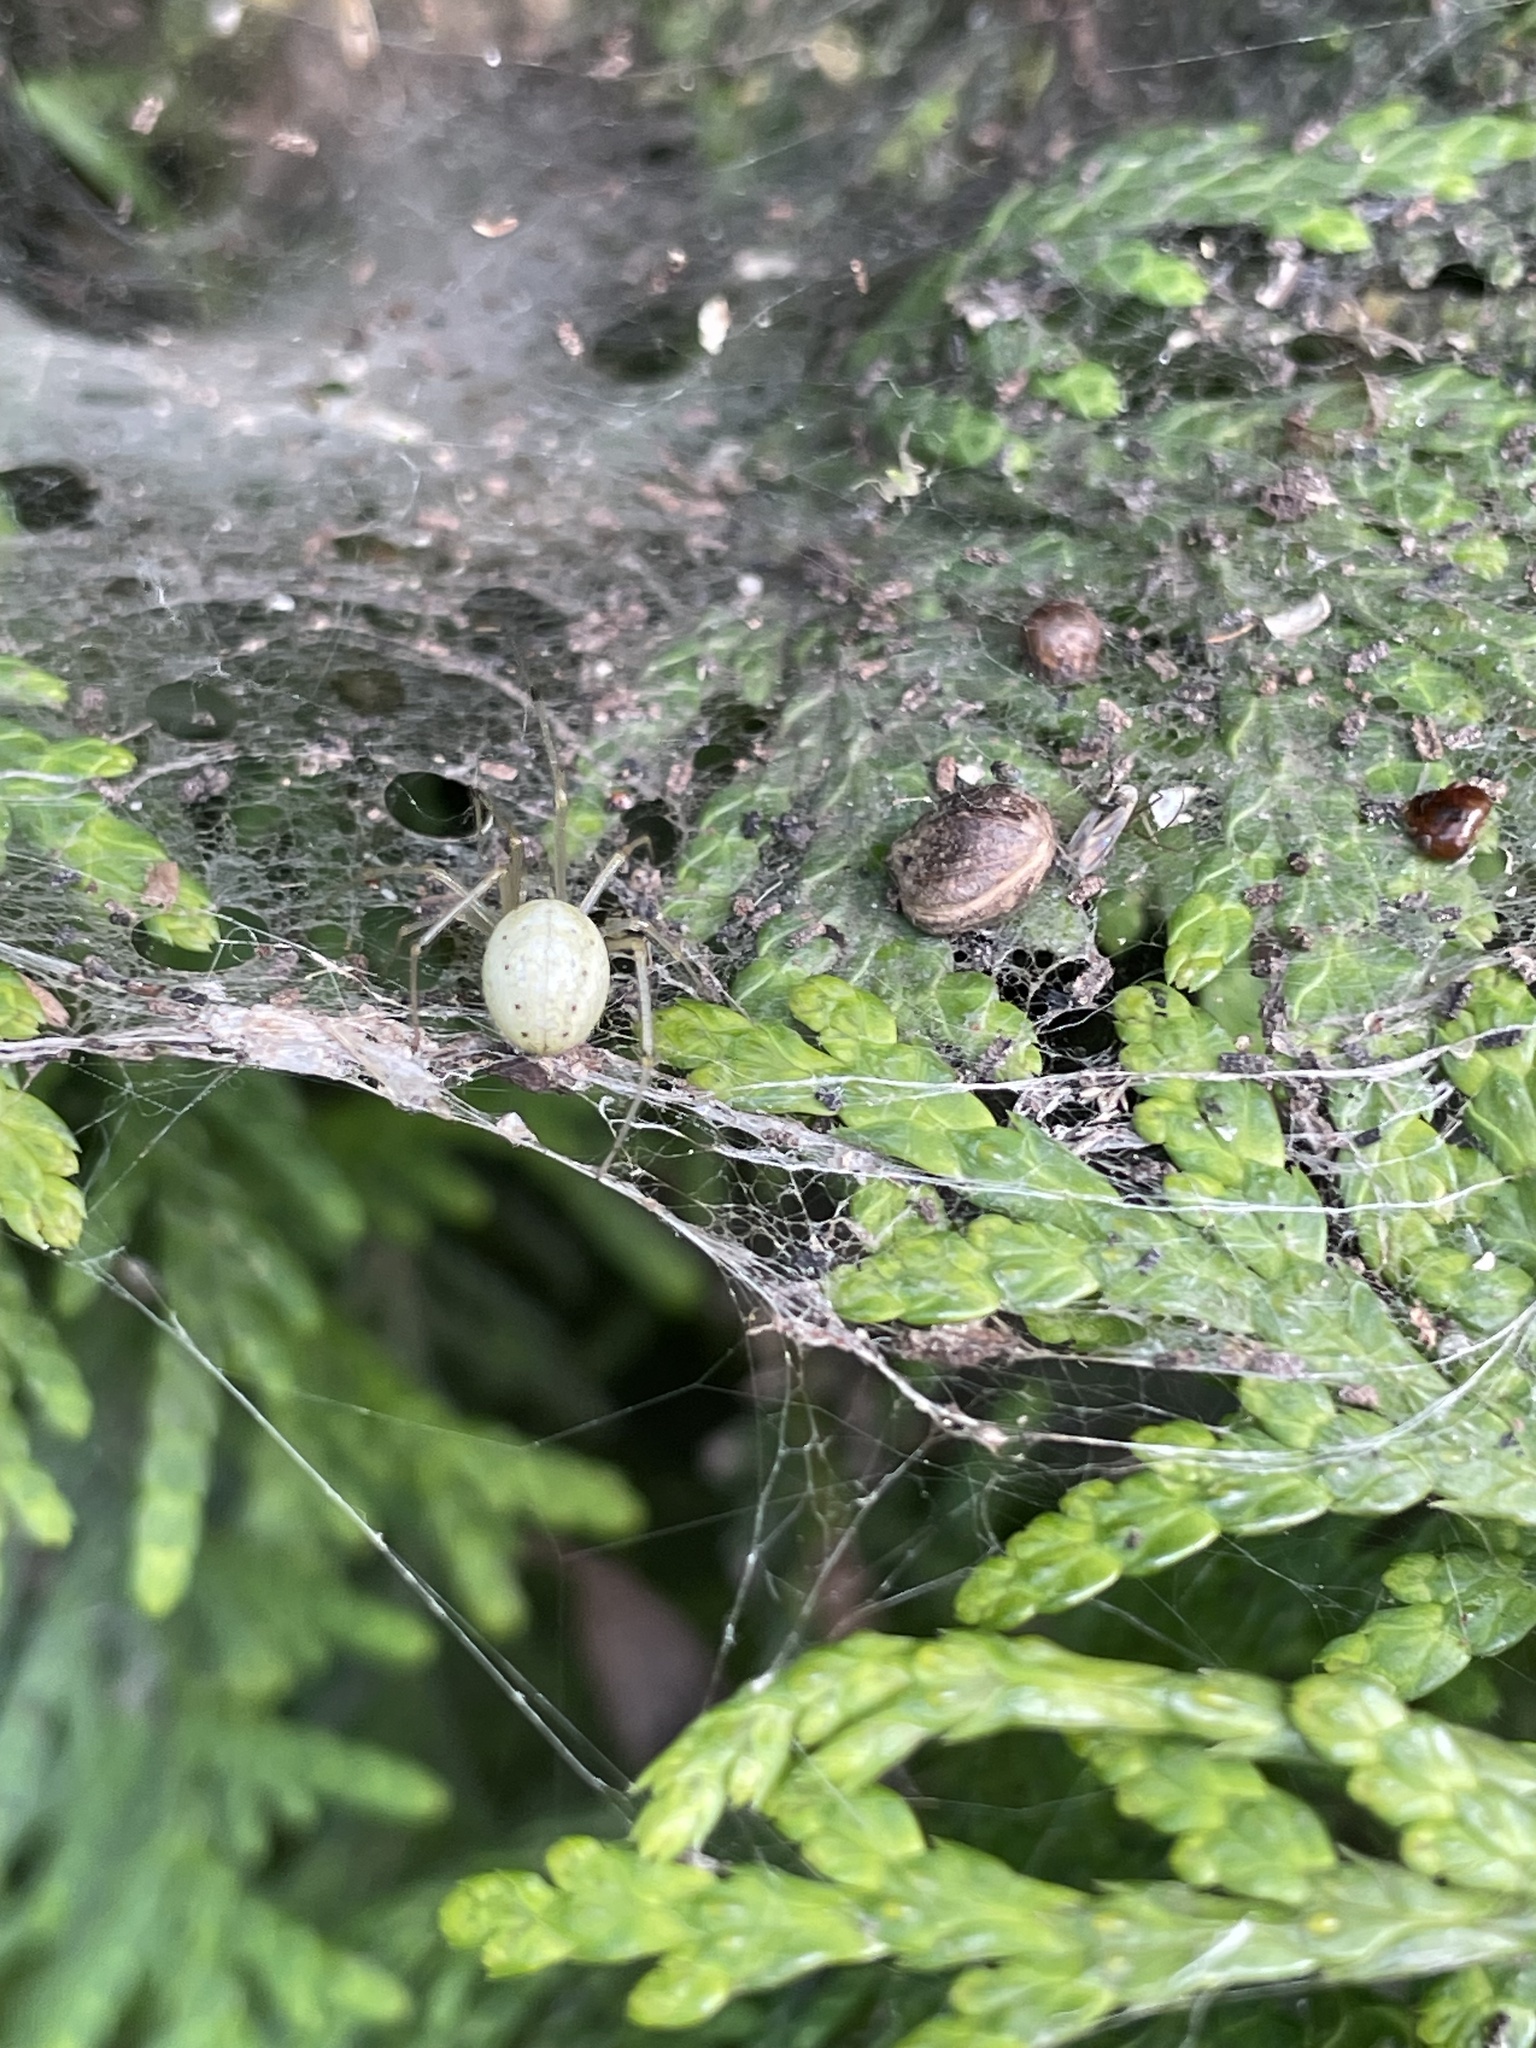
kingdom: Animalia
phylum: Arthropoda
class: Arachnida
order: Araneae
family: Theridiidae
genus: Enoplognatha
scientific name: Enoplognatha ovata
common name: Common candy-striped spider
